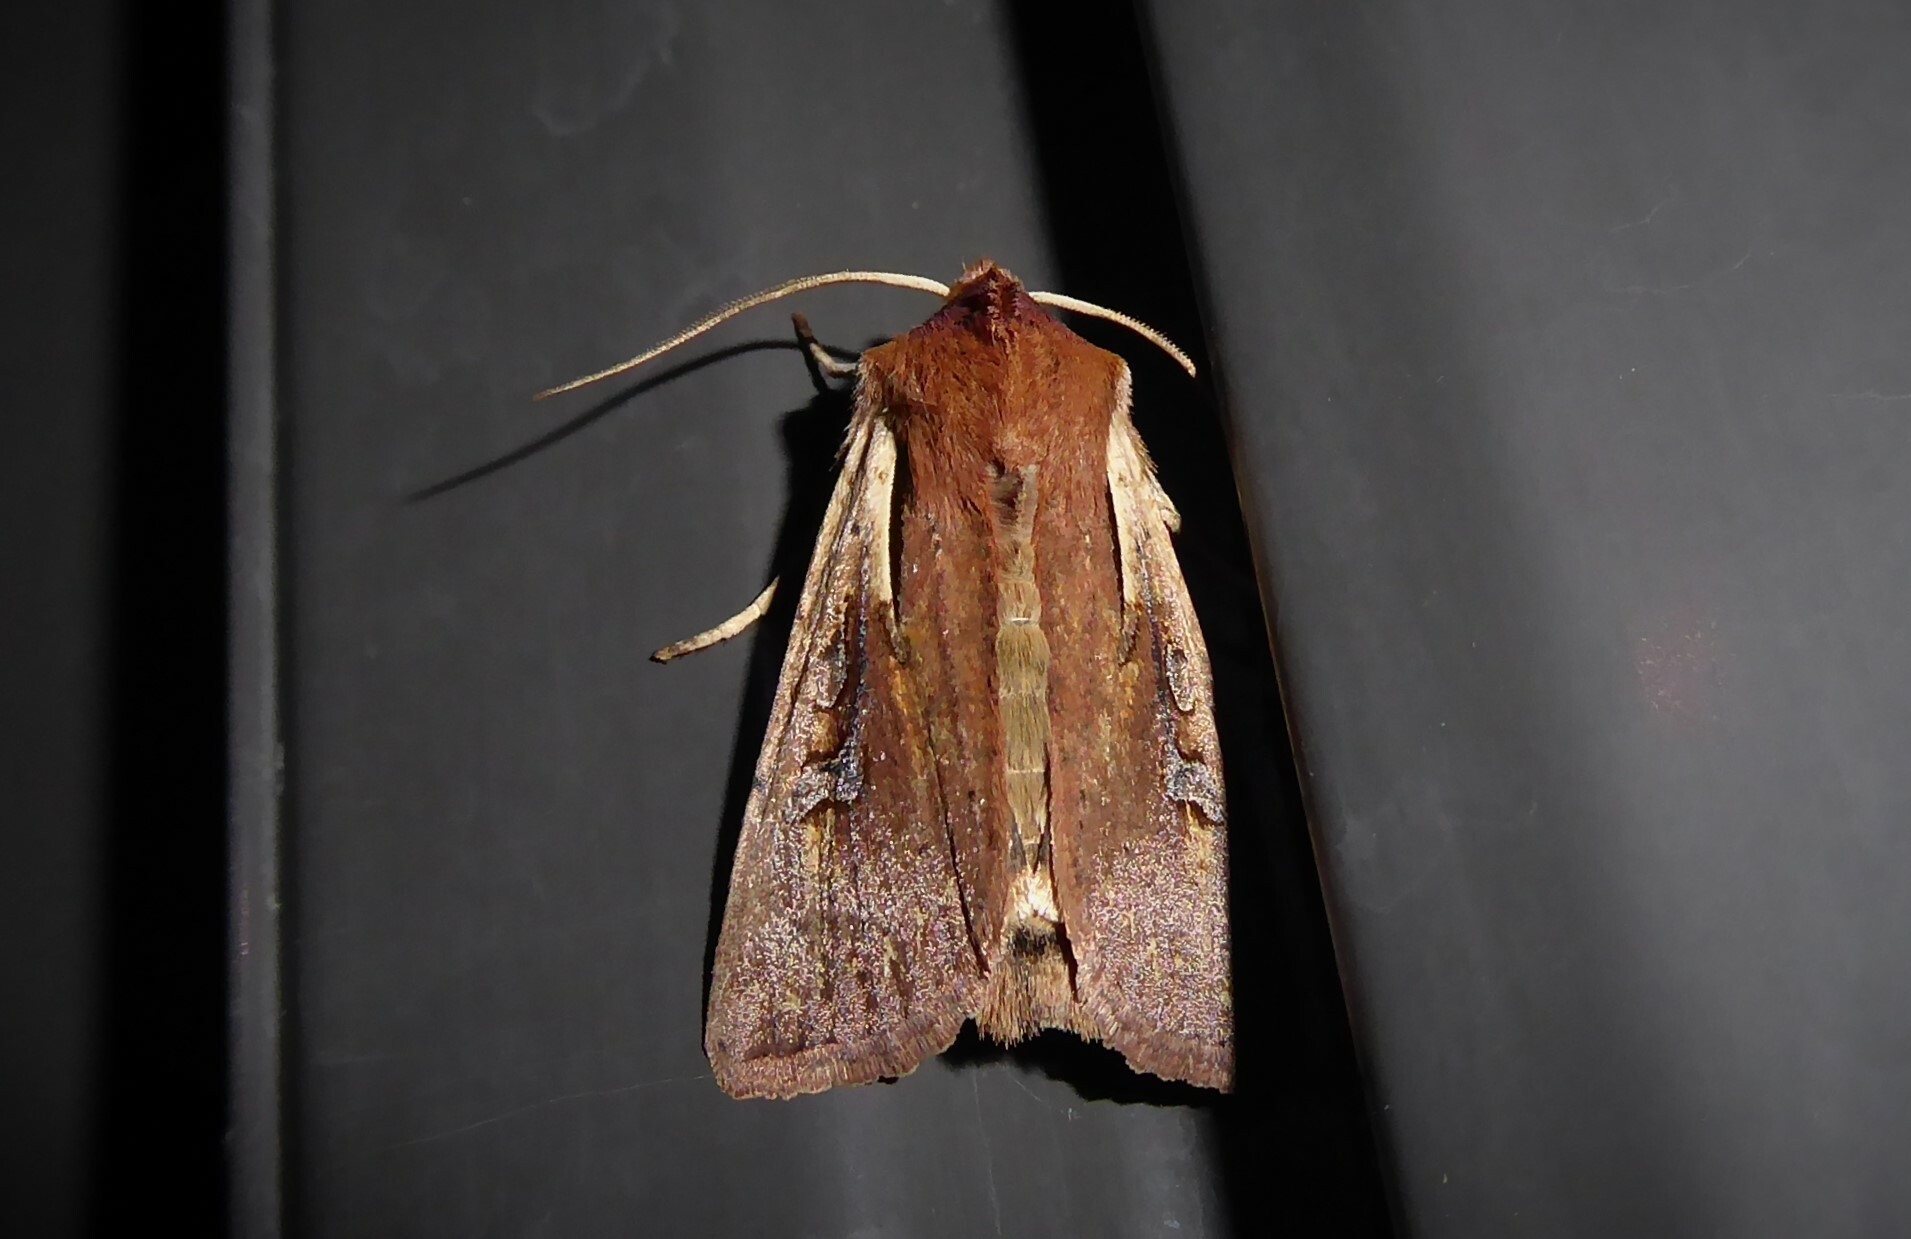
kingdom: Animalia
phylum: Arthropoda
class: Insecta
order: Lepidoptera
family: Noctuidae
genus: Ichneutica
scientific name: Ichneutica atristriga
